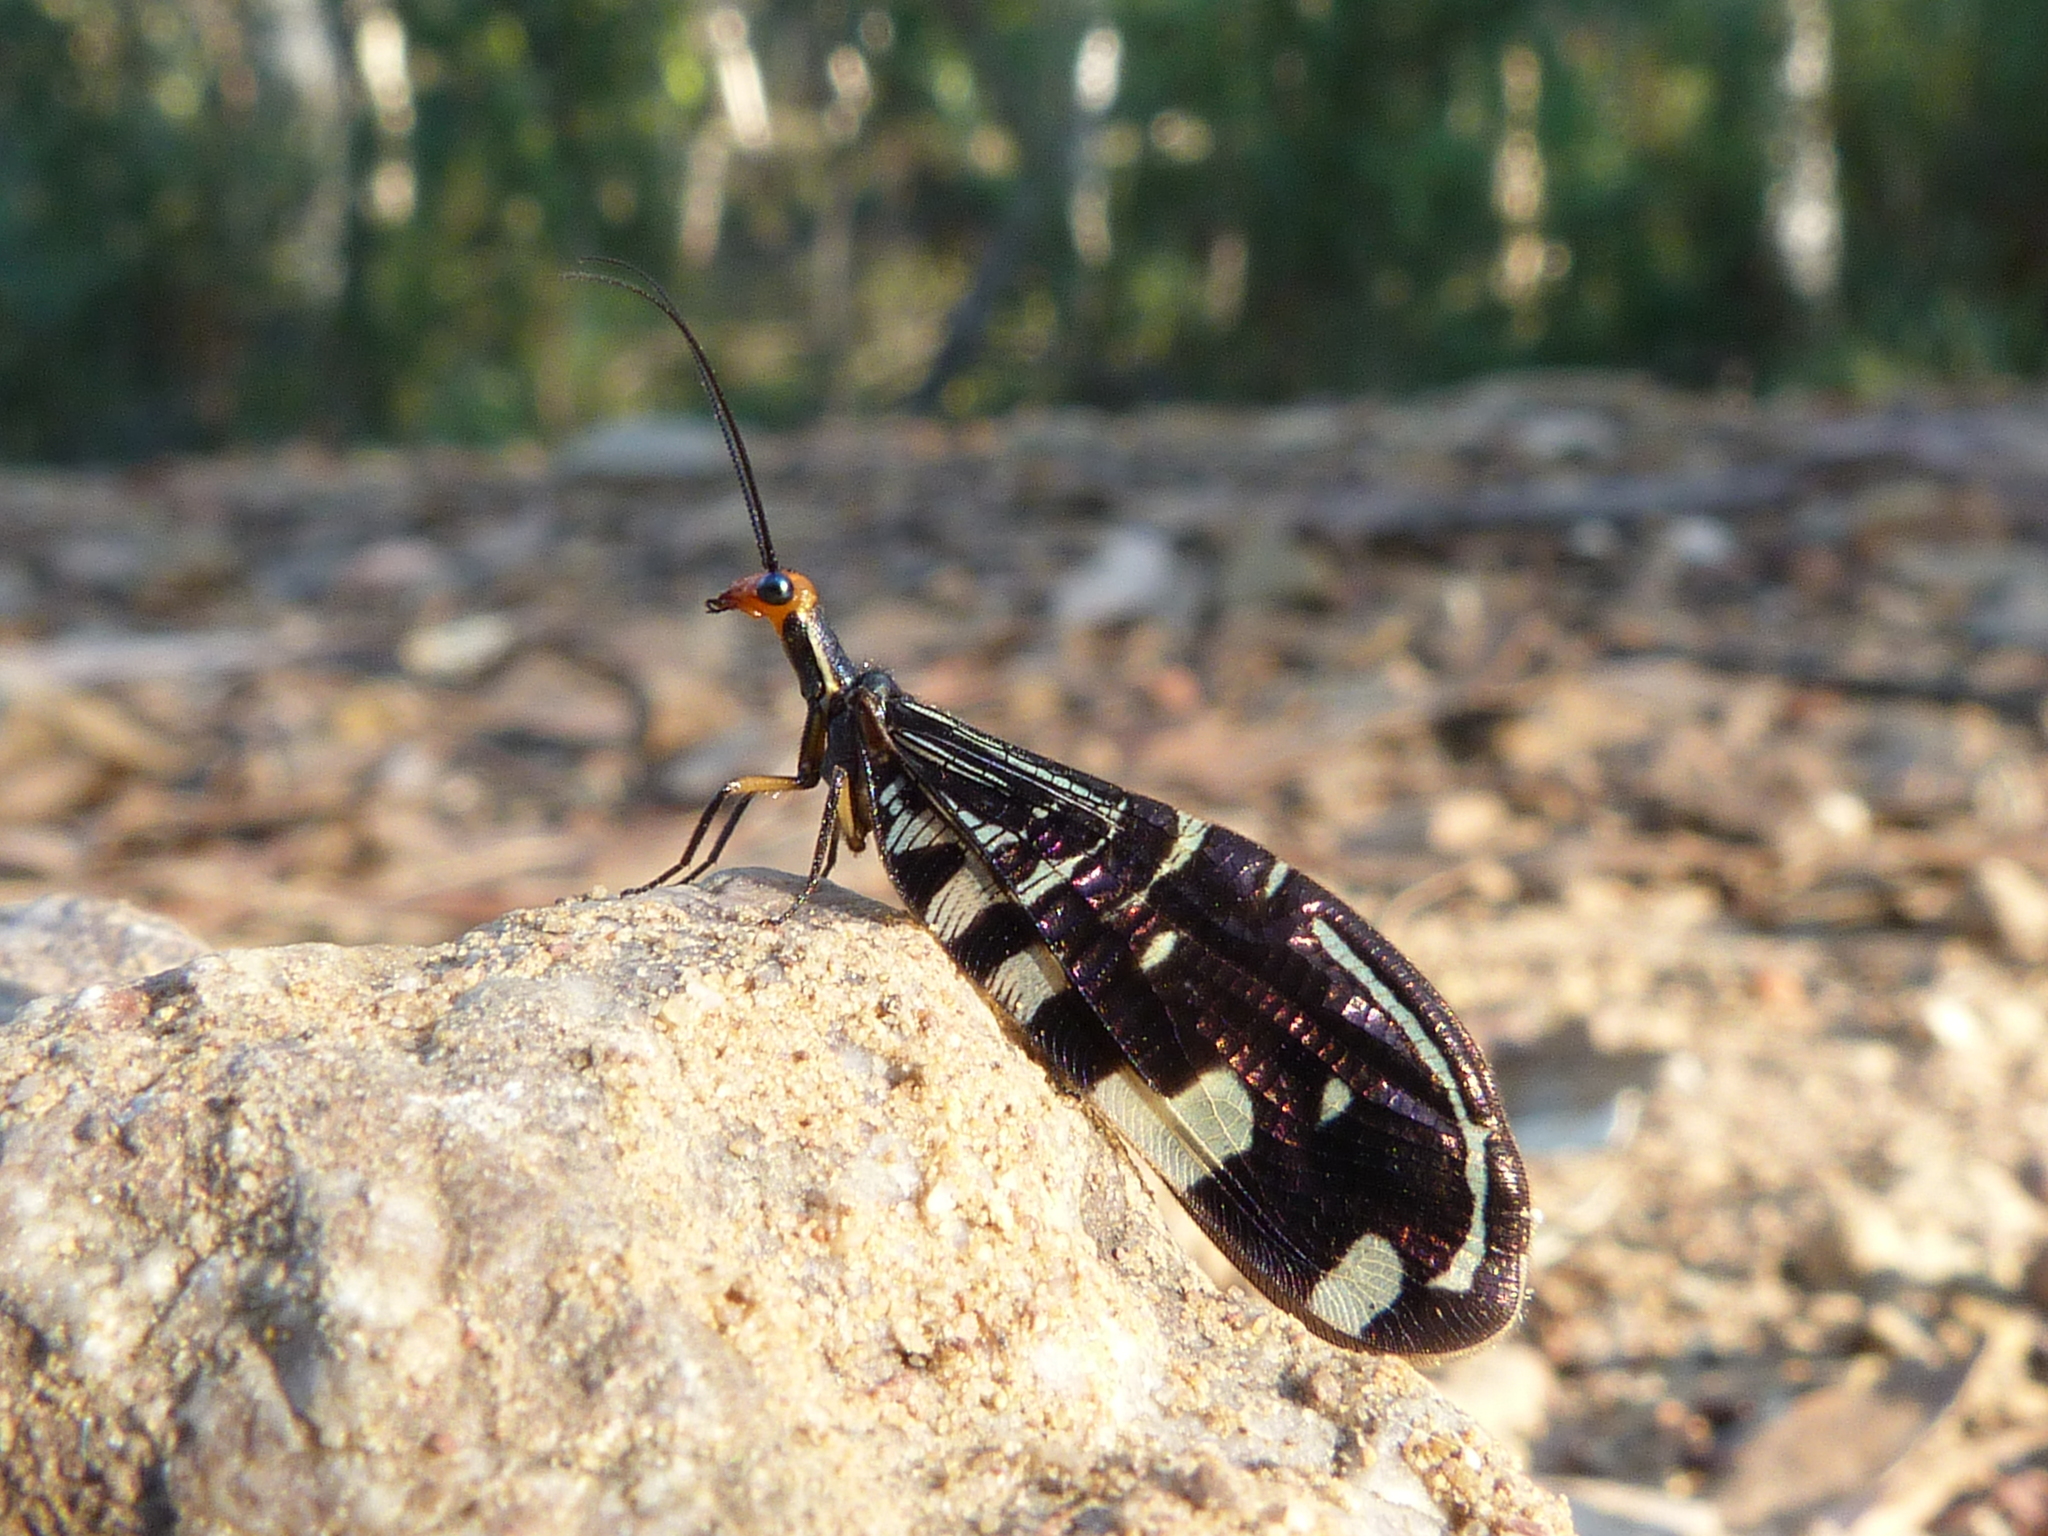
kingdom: Animalia
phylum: Arthropoda
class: Insecta
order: Neuroptera
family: Osmylidae
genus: Porismus
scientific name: Porismus strigatus
